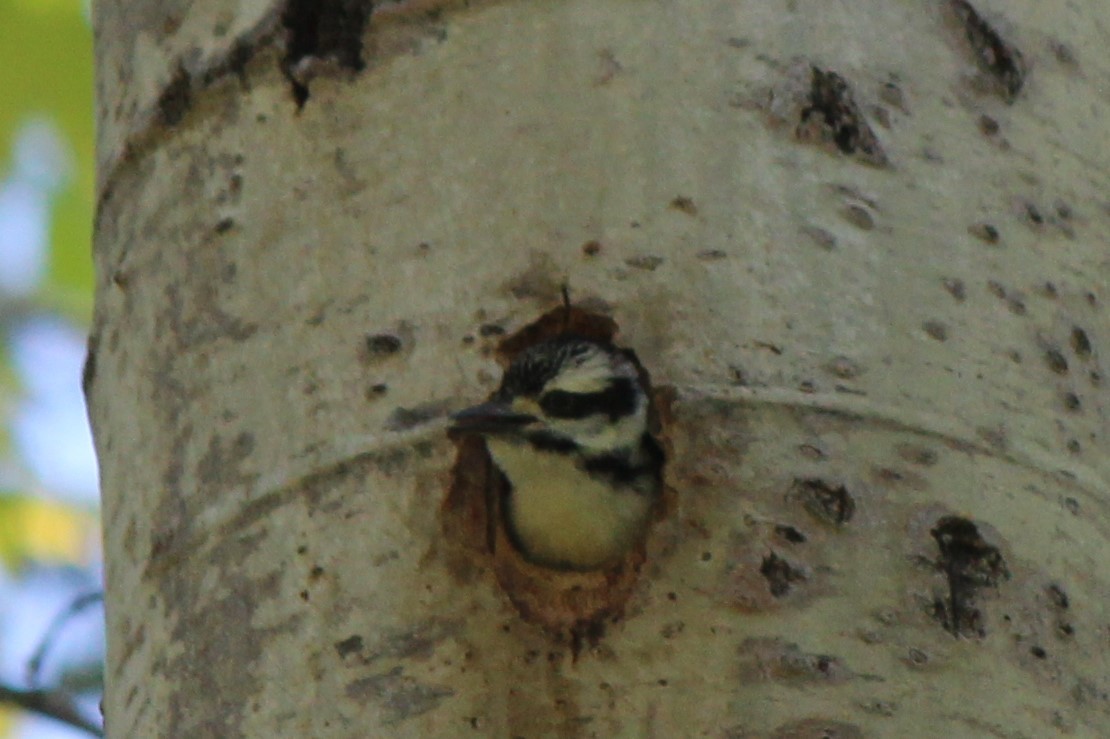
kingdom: Animalia
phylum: Chordata
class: Aves
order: Piciformes
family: Picidae
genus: Dryobates
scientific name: Dryobates pubescens
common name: Downy woodpecker
